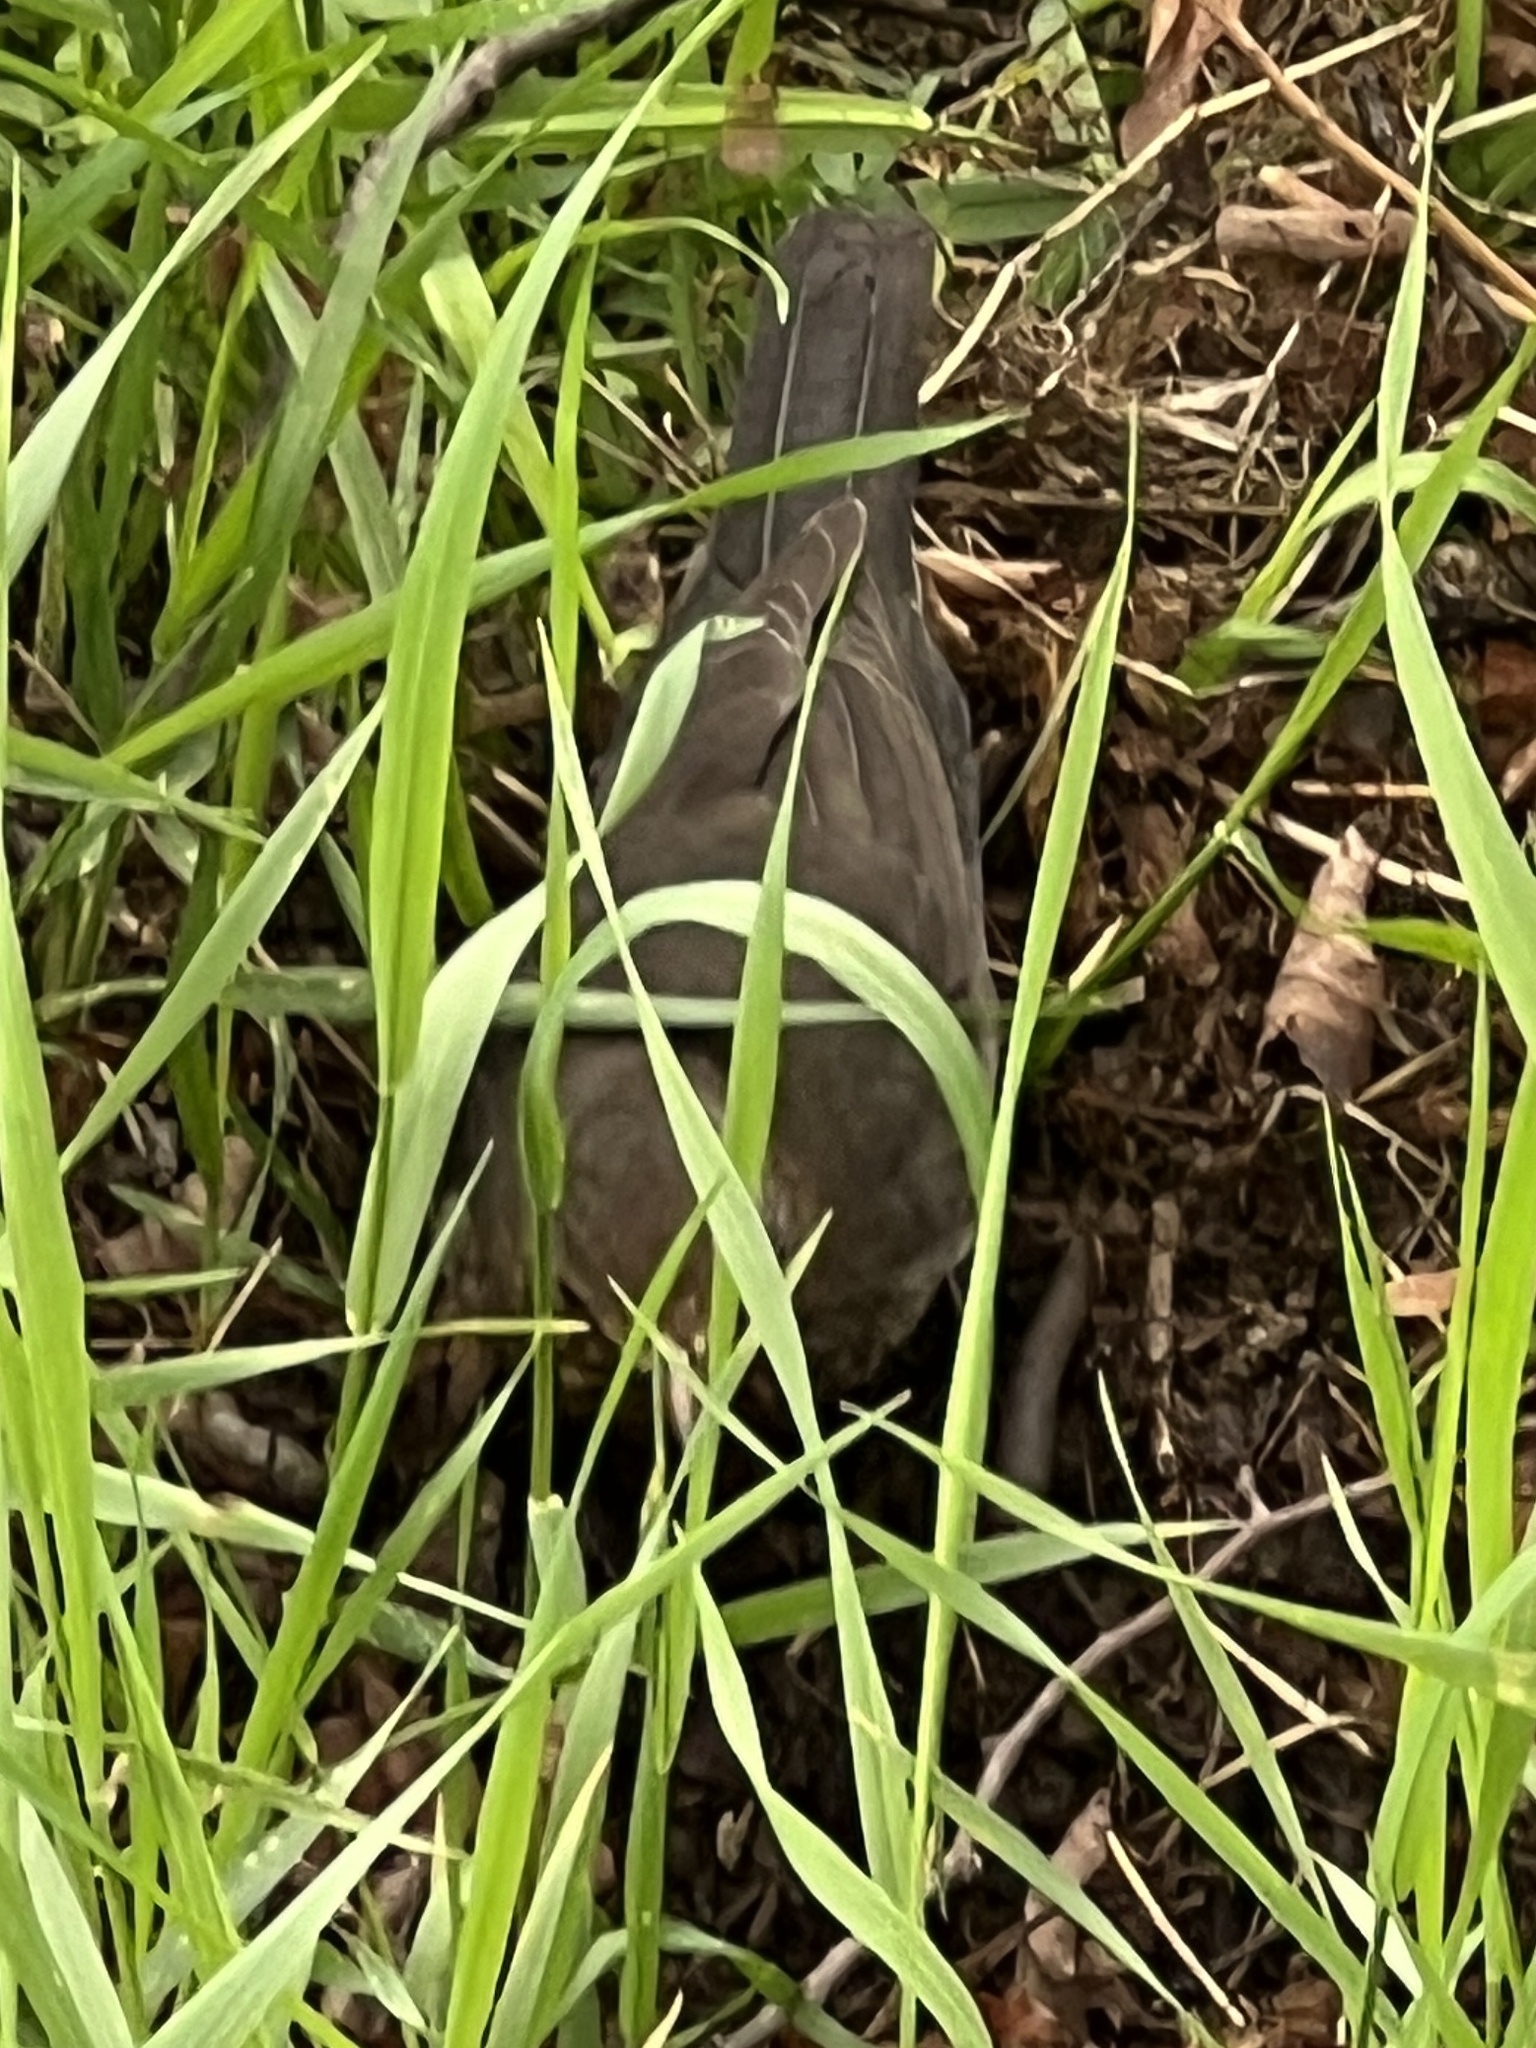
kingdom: Animalia
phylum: Chordata
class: Aves
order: Passeriformes
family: Turdidae
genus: Turdus
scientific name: Turdus merula
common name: Common blackbird
